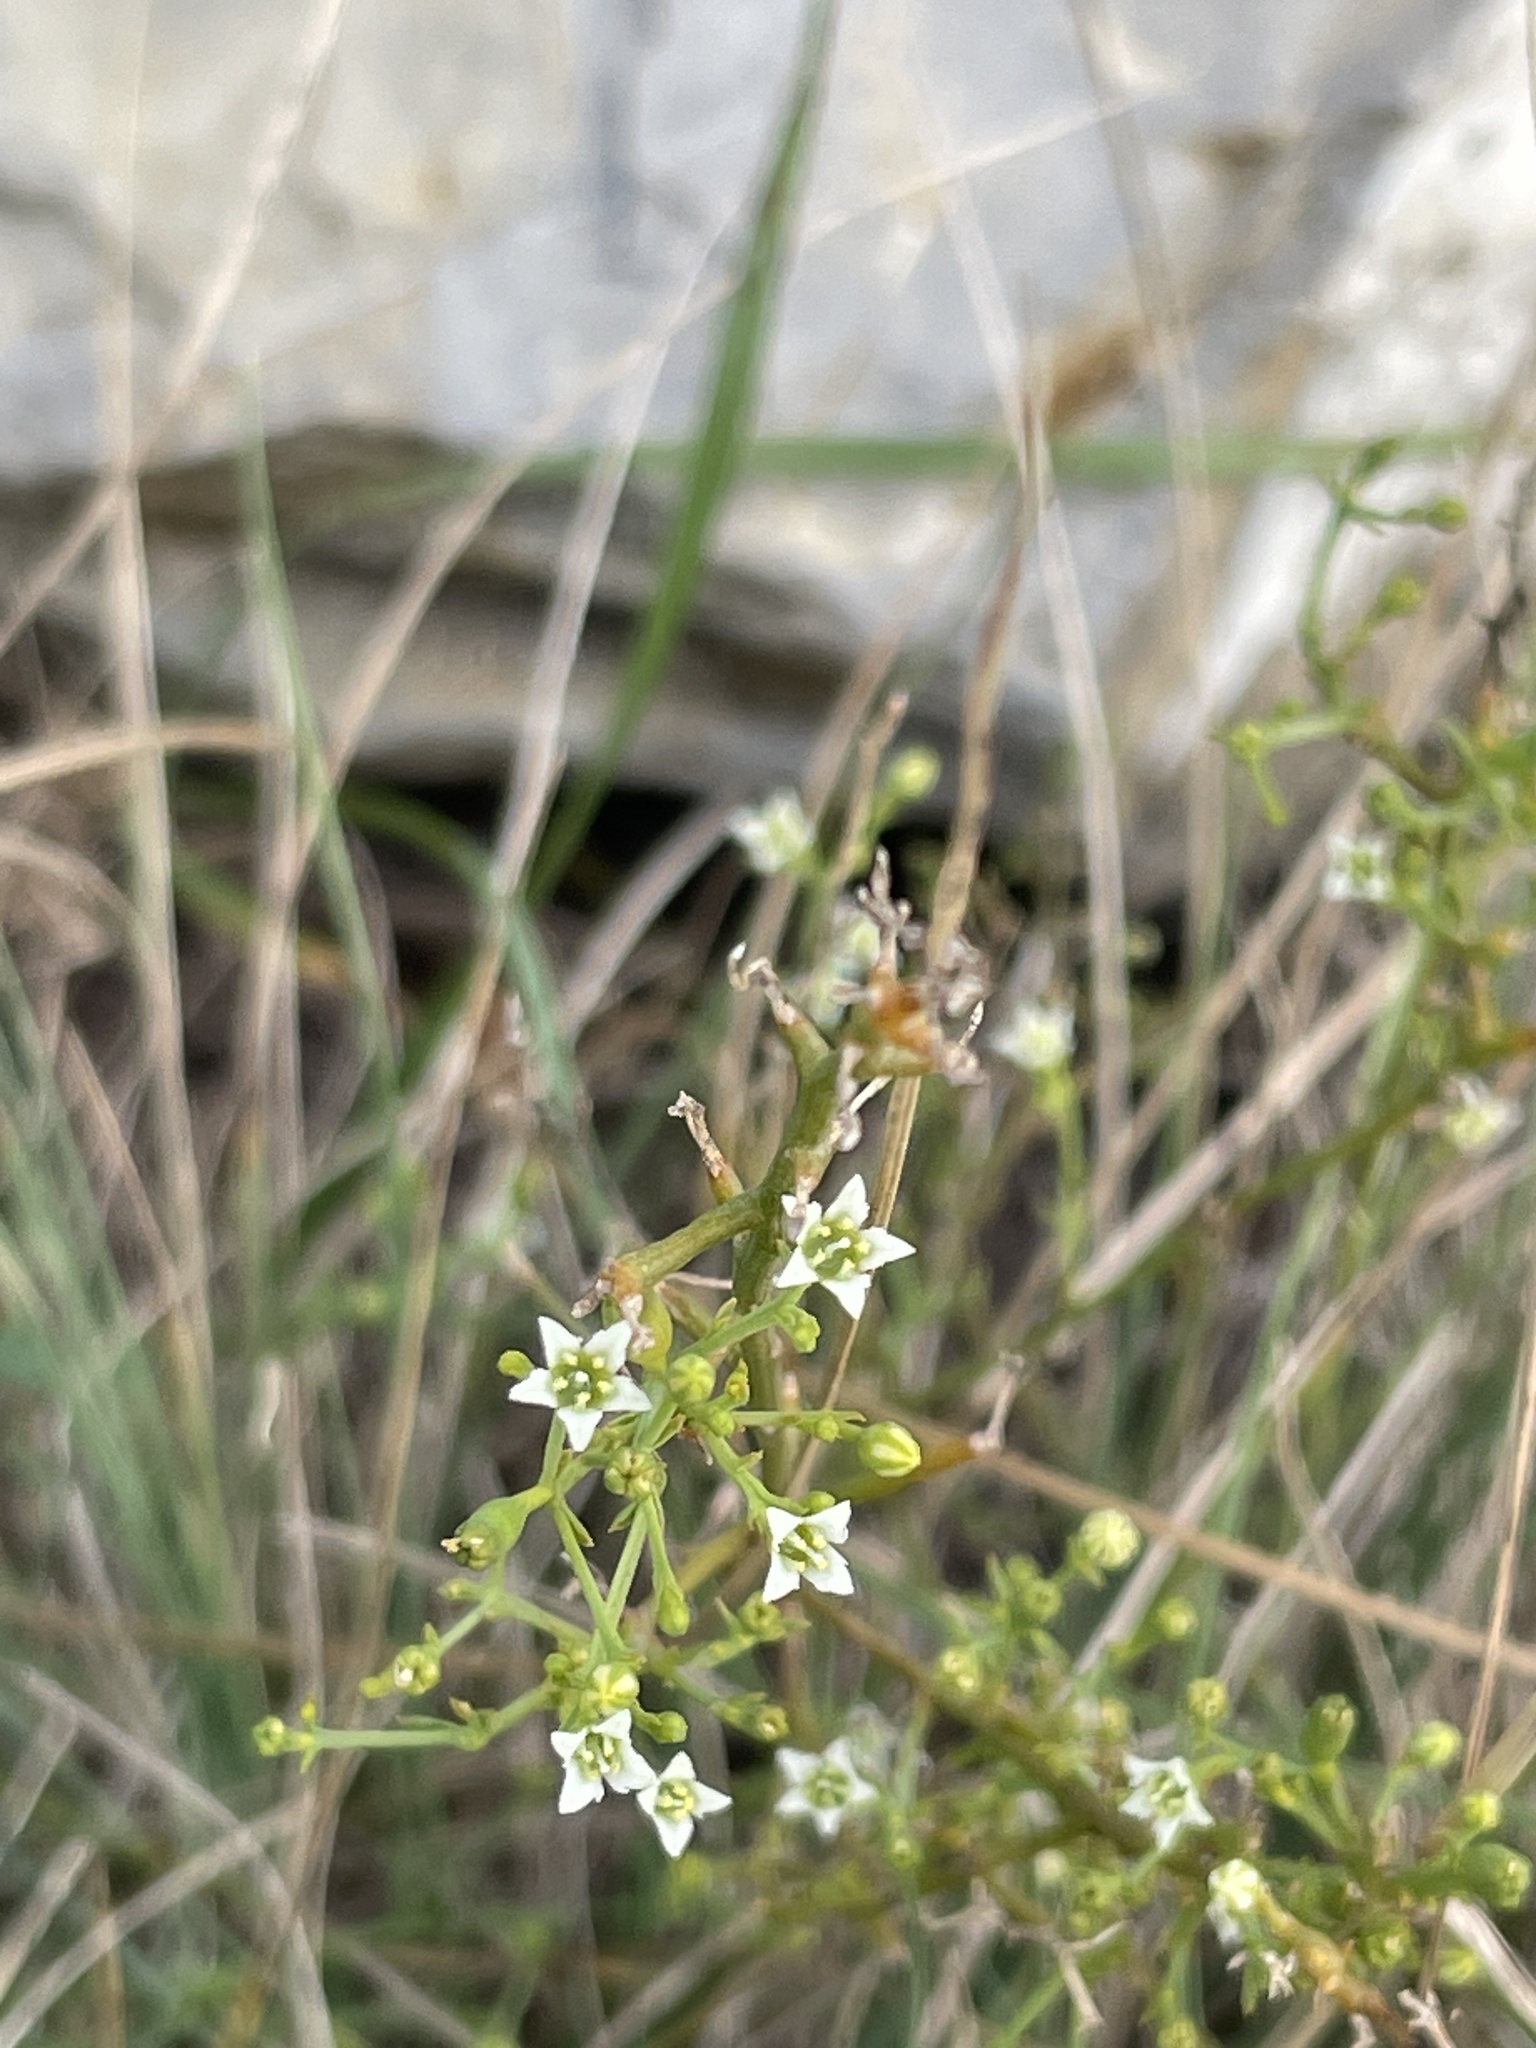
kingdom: Plantae
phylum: Tracheophyta
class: Magnoliopsida
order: Santalales
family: Thesiaceae
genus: Thesium
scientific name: Thesium divaricatum
